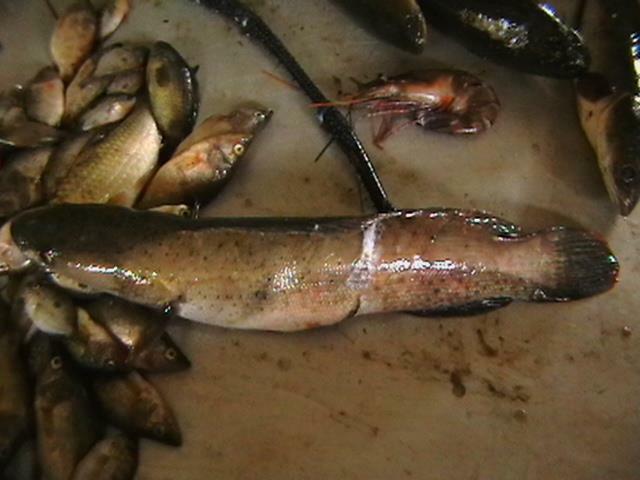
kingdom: Animalia
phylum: Chordata
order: Perciformes
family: Channidae
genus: Channa
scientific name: Channa diplogramma
